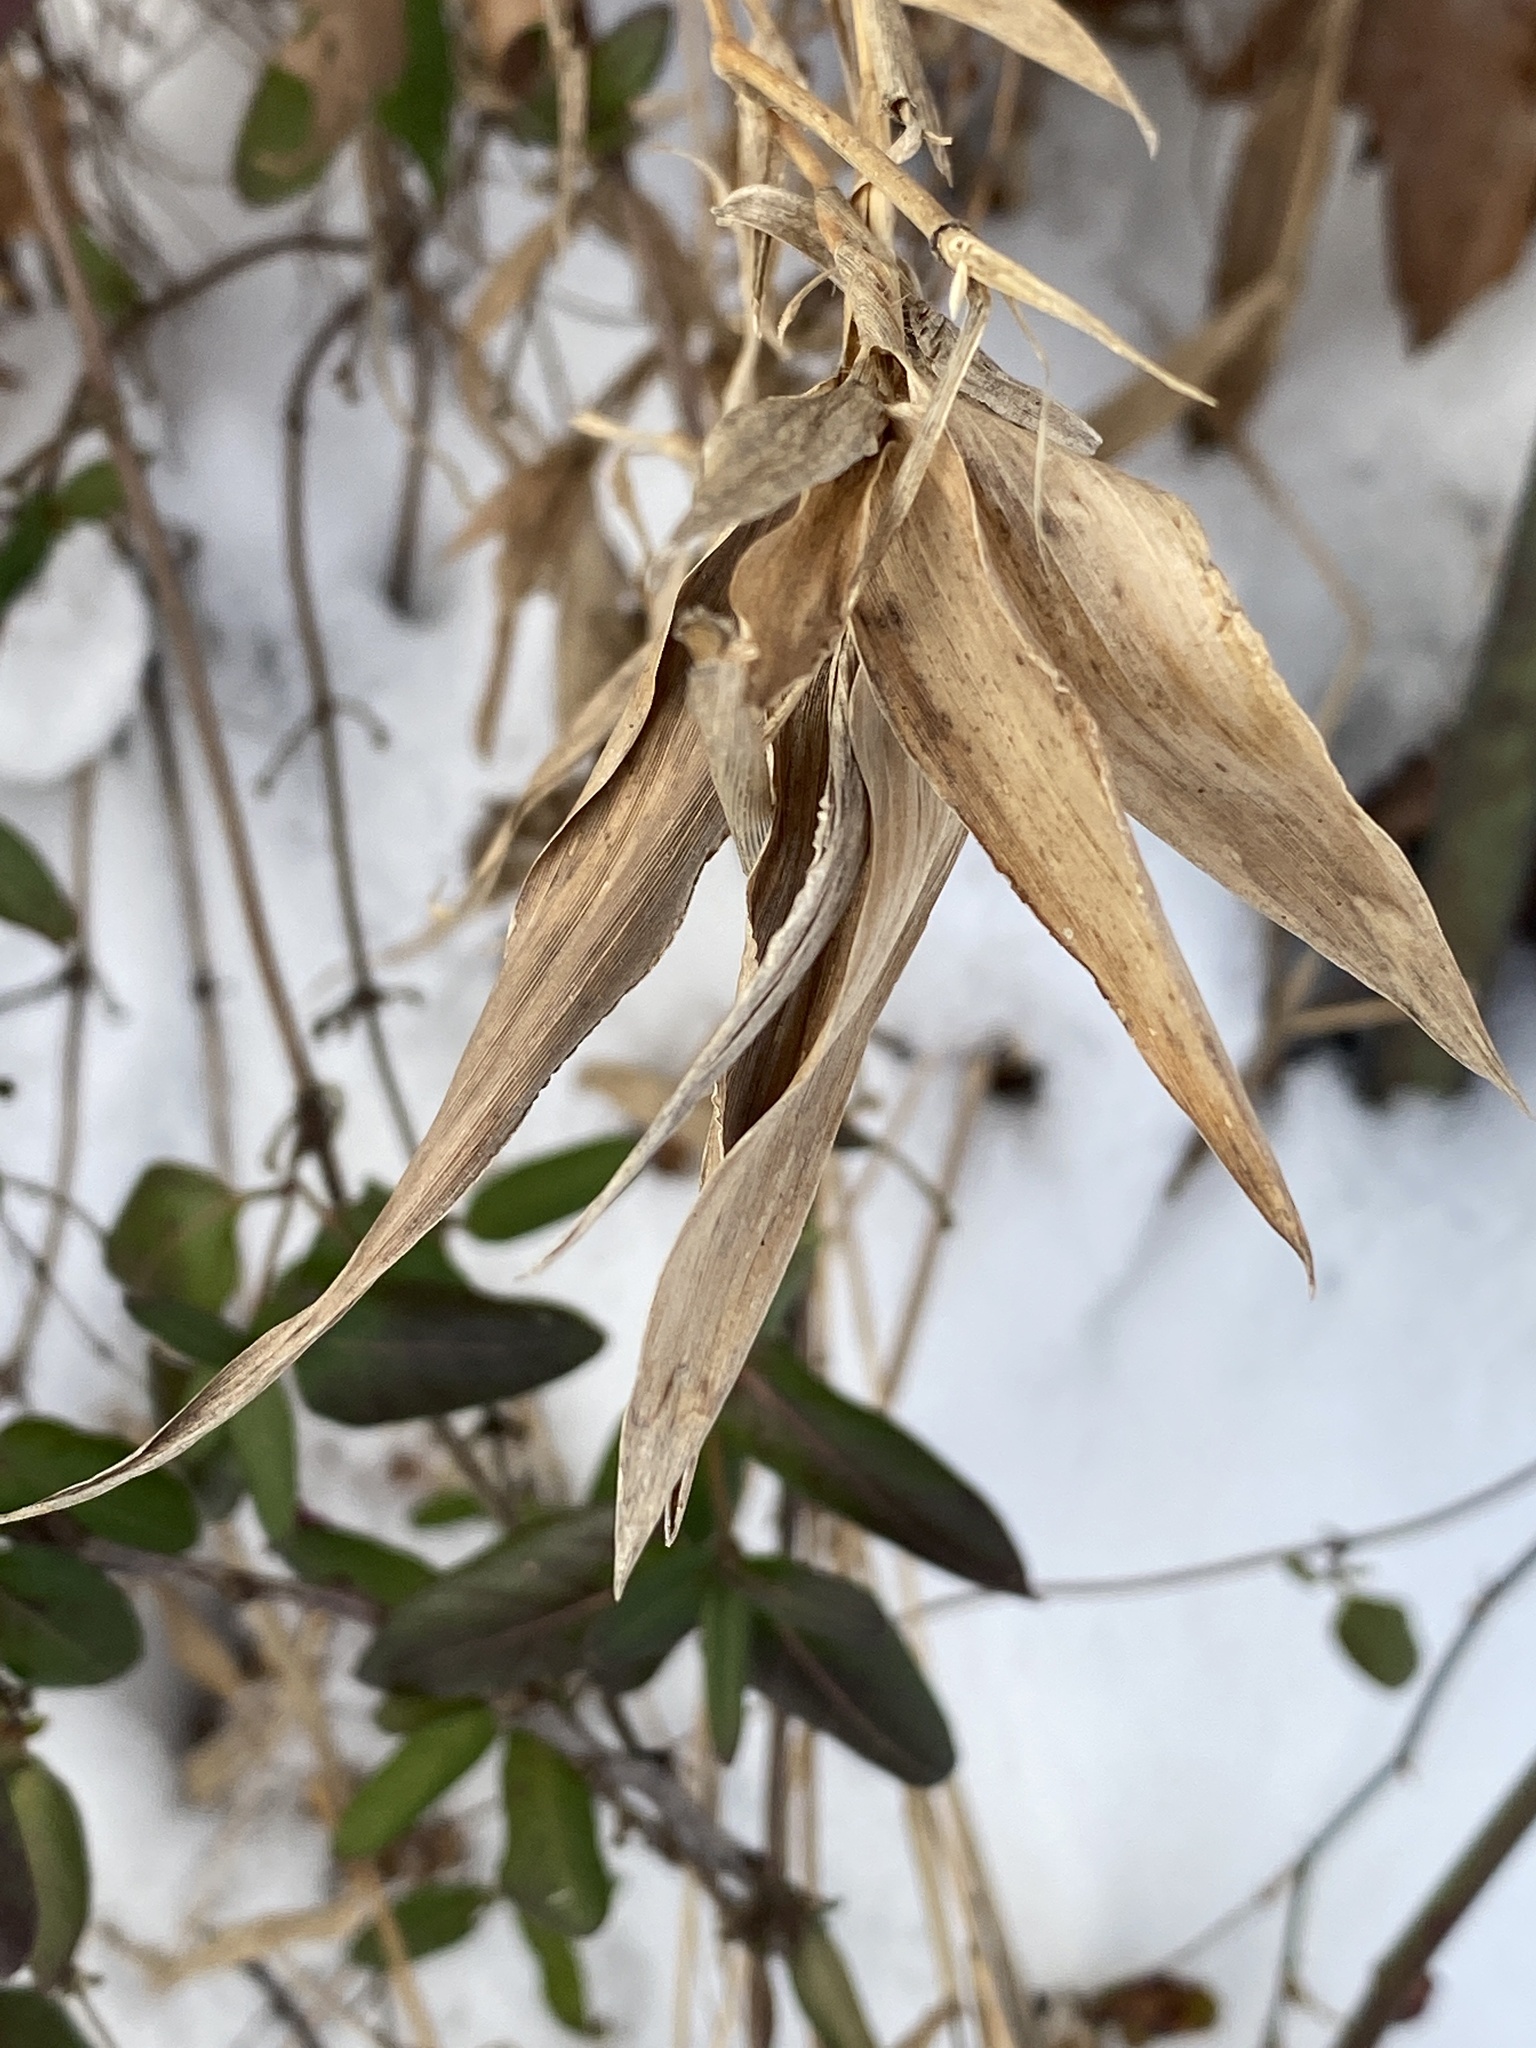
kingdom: Plantae
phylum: Tracheophyta
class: Liliopsida
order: Poales
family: Poaceae
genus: Dichanthelium
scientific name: Dichanthelium clandestinum
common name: Deer-tongue grass
